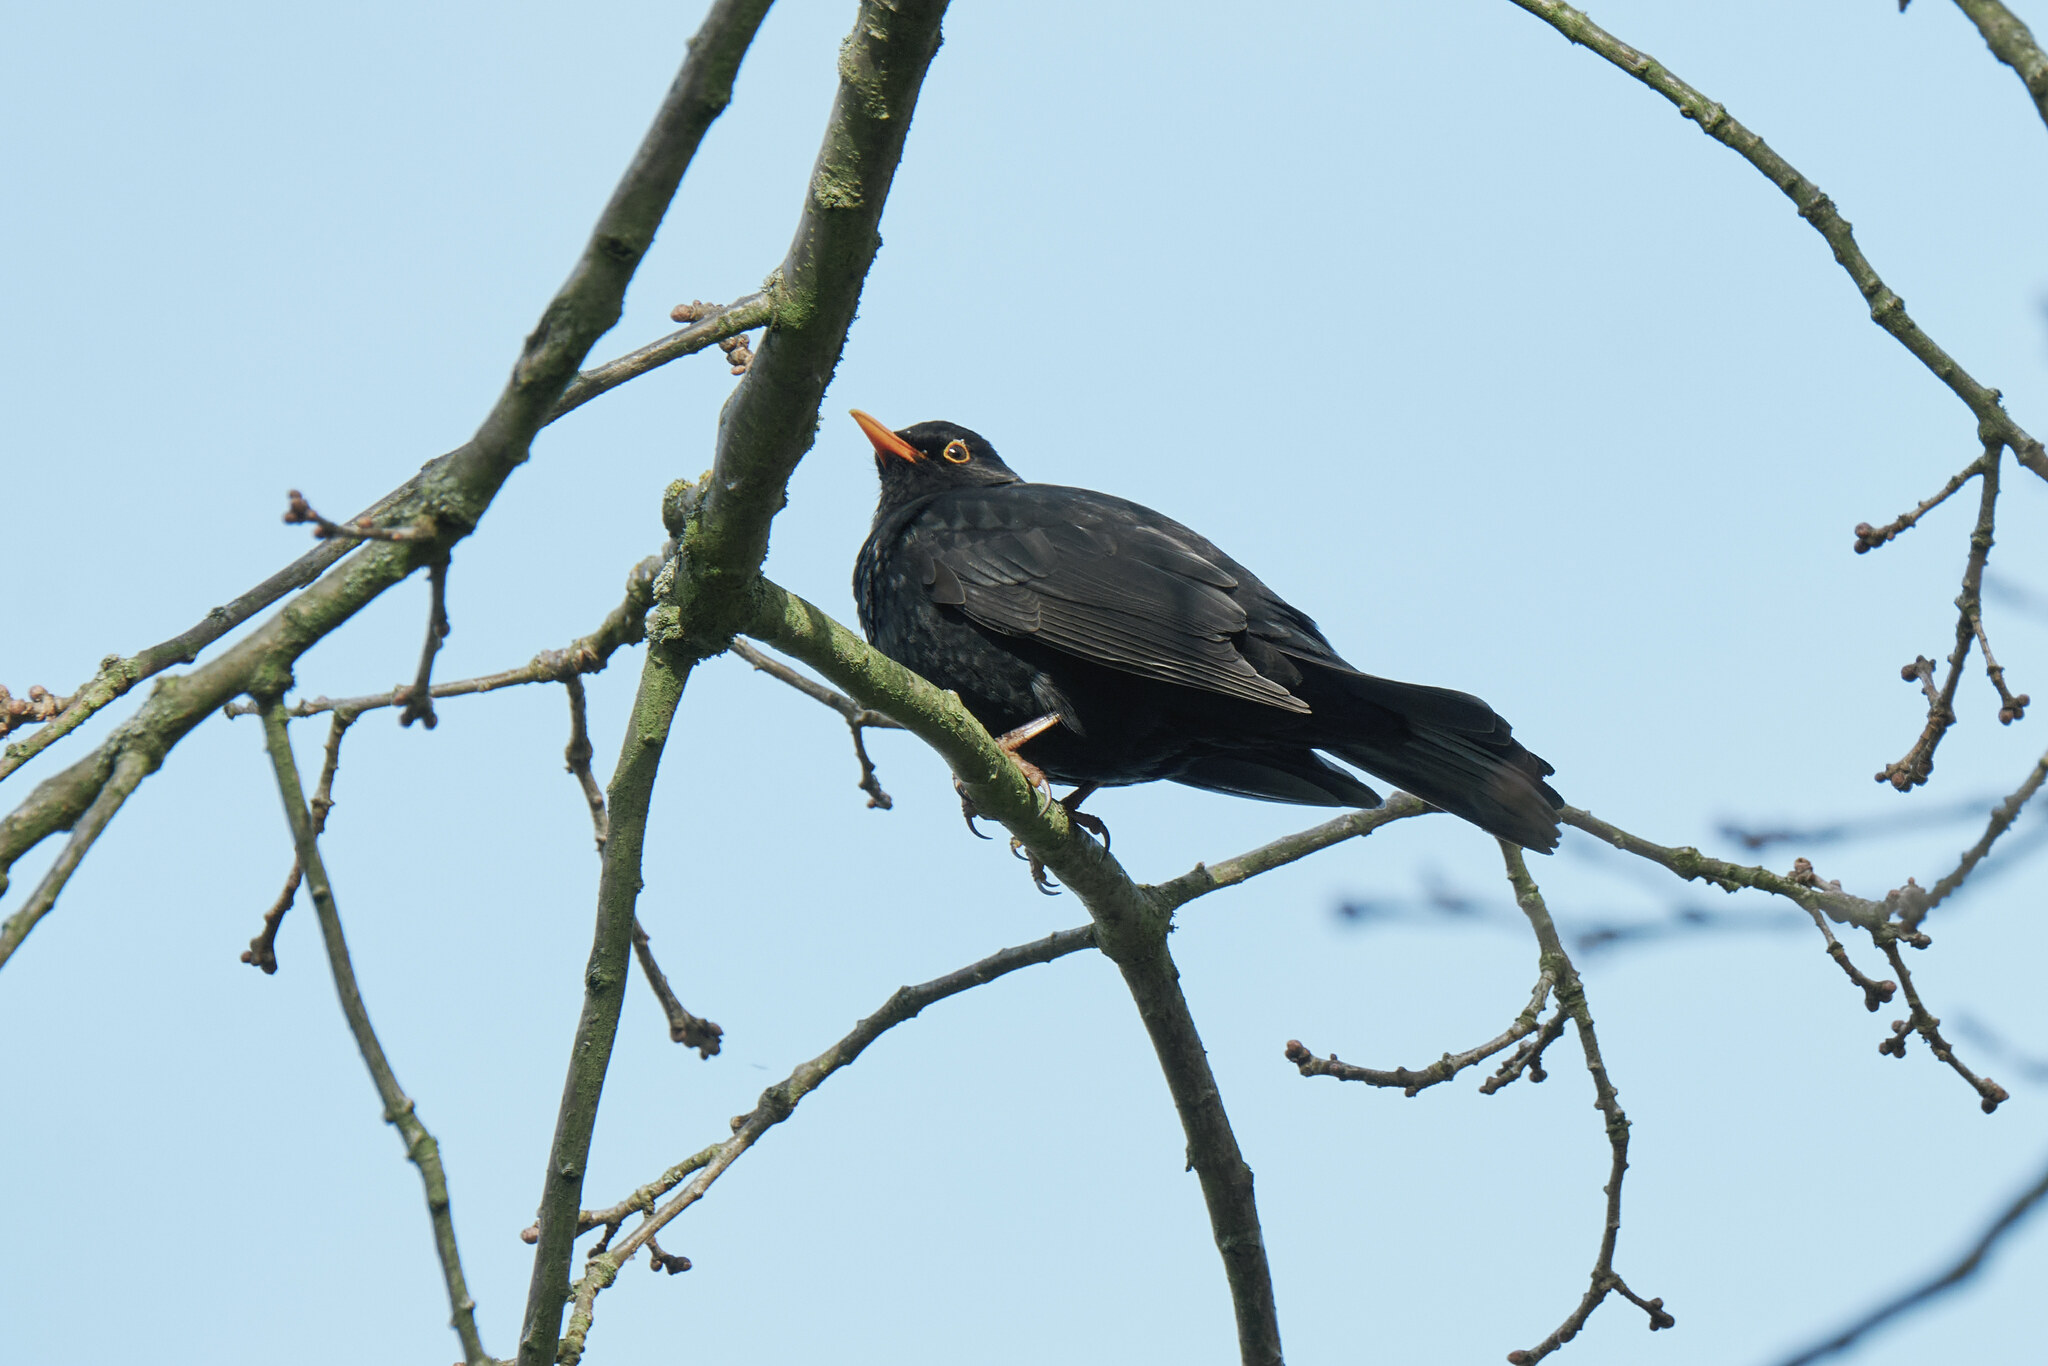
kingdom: Animalia
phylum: Chordata
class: Aves
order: Passeriformes
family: Turdidae
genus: Turdus
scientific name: Turdus merula
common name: Common blackbird
